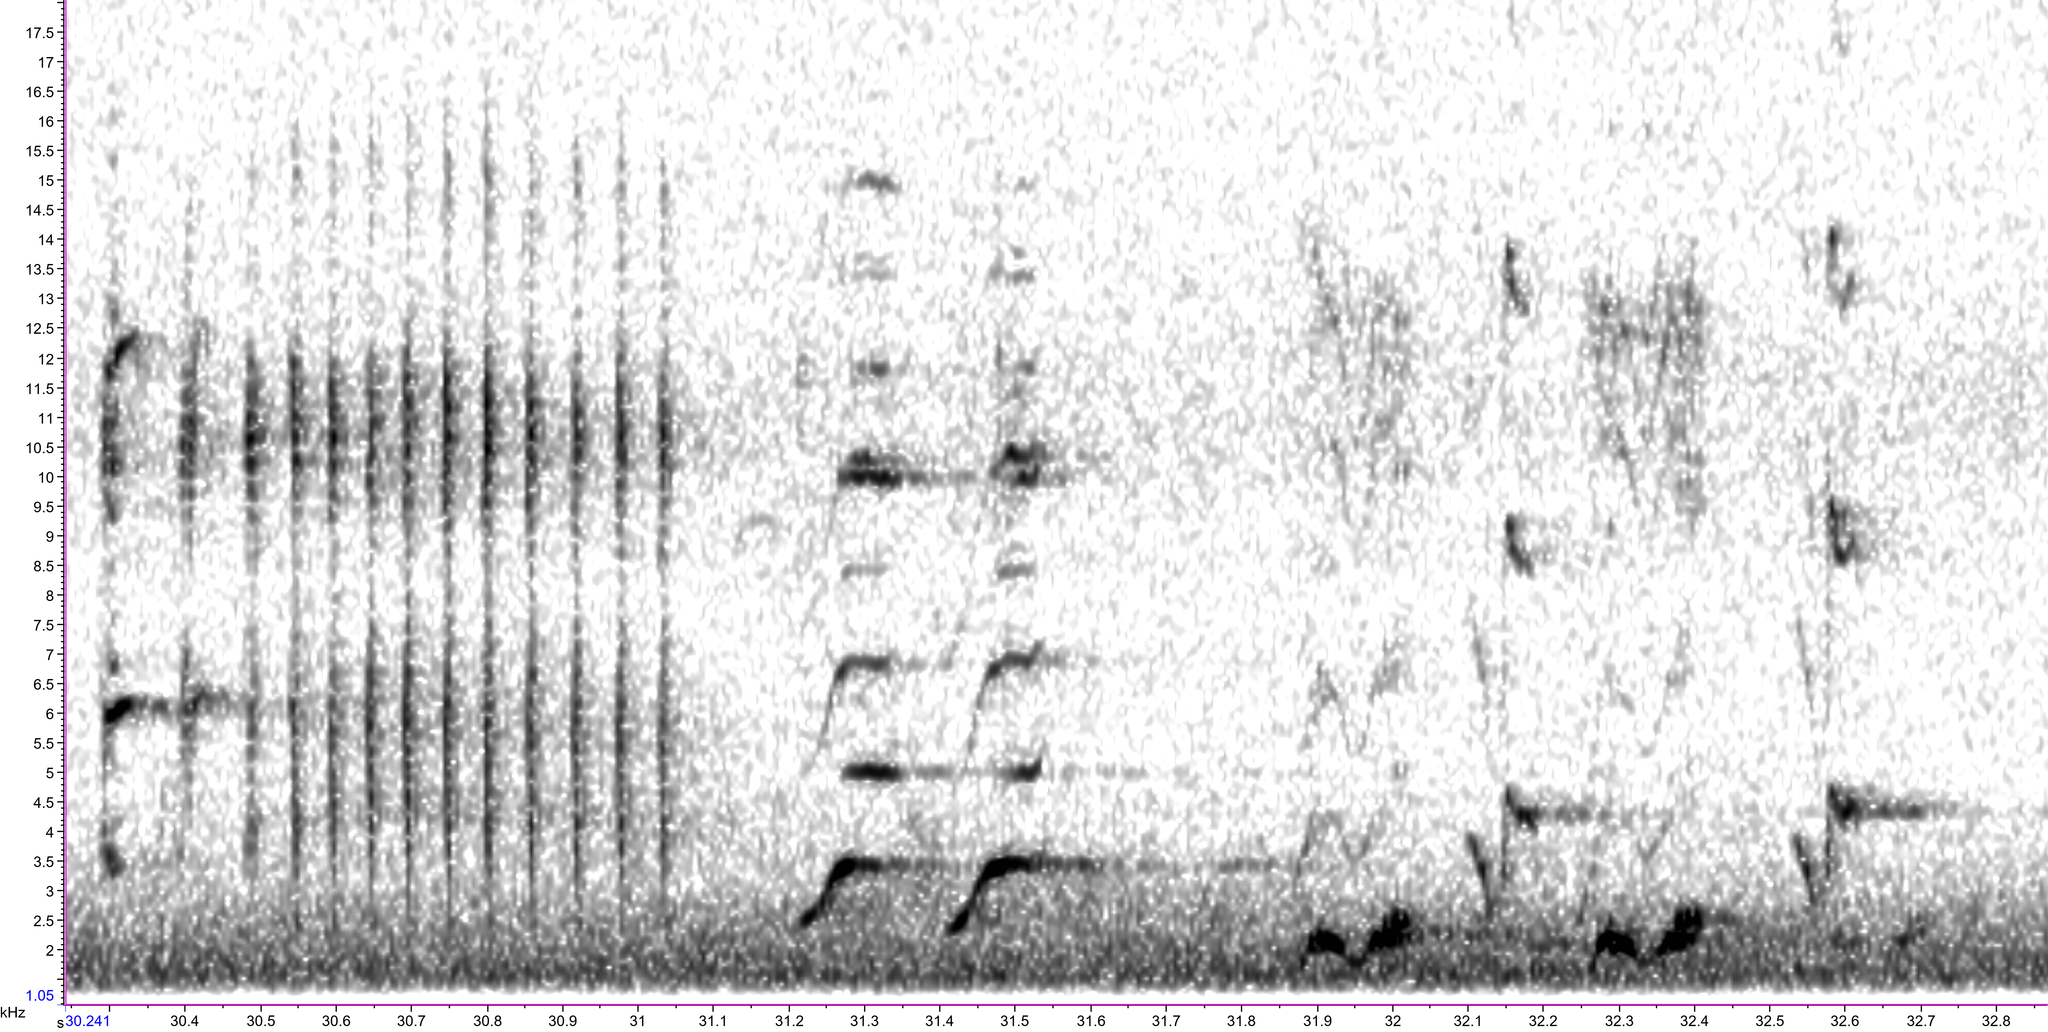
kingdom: Animalia
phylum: Chordata
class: Aves
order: Passeriformes
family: Mimidae
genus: Toxostoma
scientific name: Toxostoma rufum
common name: Brown thrasher
